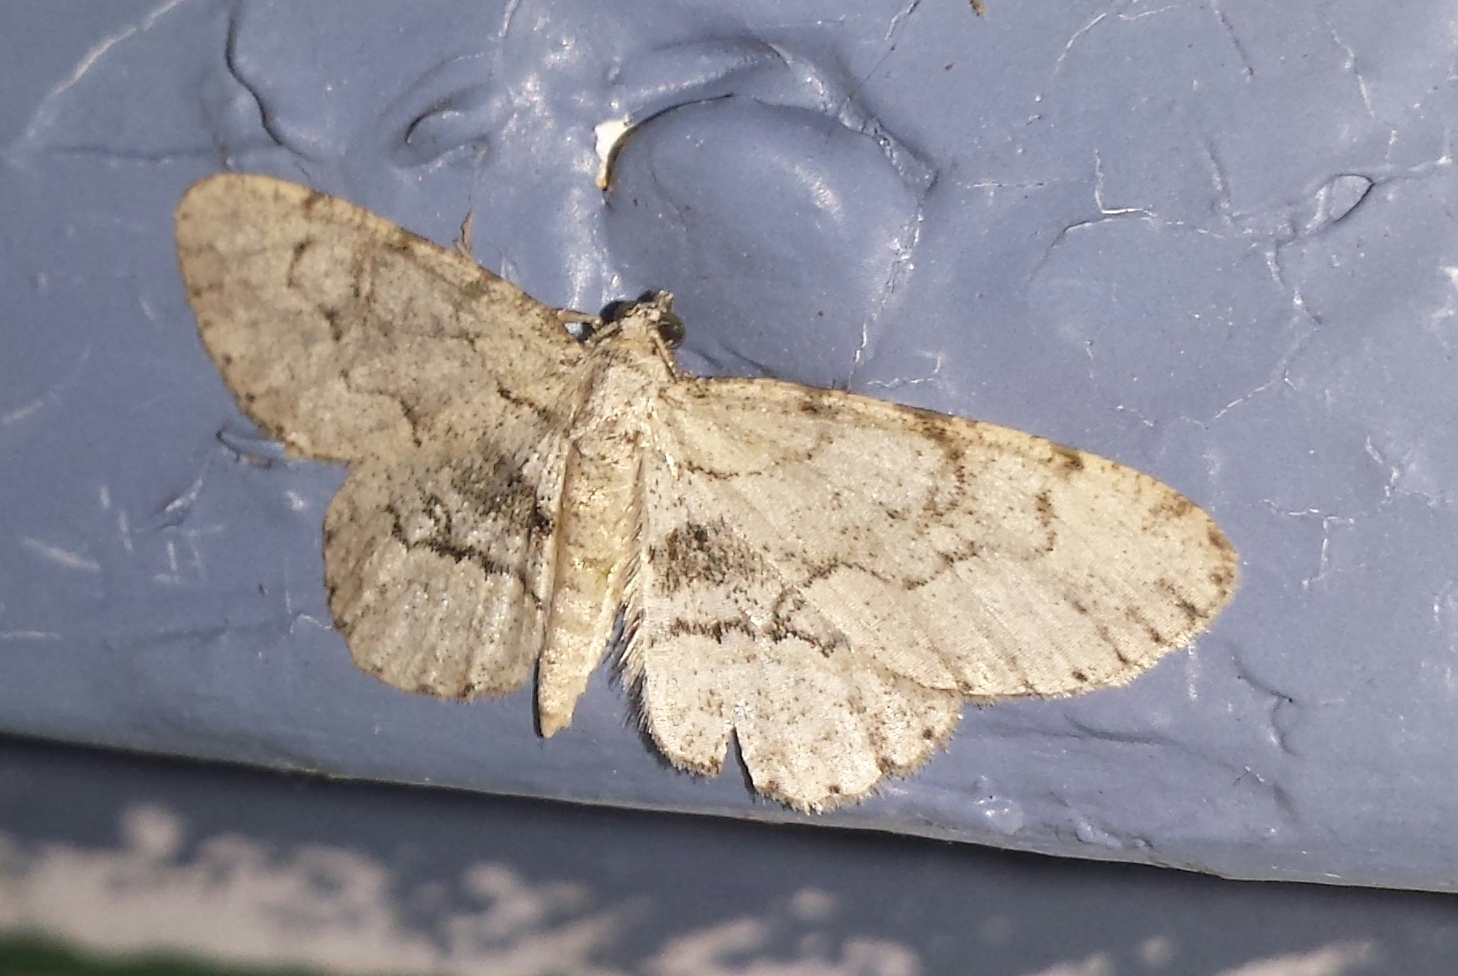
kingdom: Animalia
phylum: Arthropoda
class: Insecta
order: Lepidoptera
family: Geometridae
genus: Iridopsis
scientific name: Iridopsis larvaria
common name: Bent-line gray
